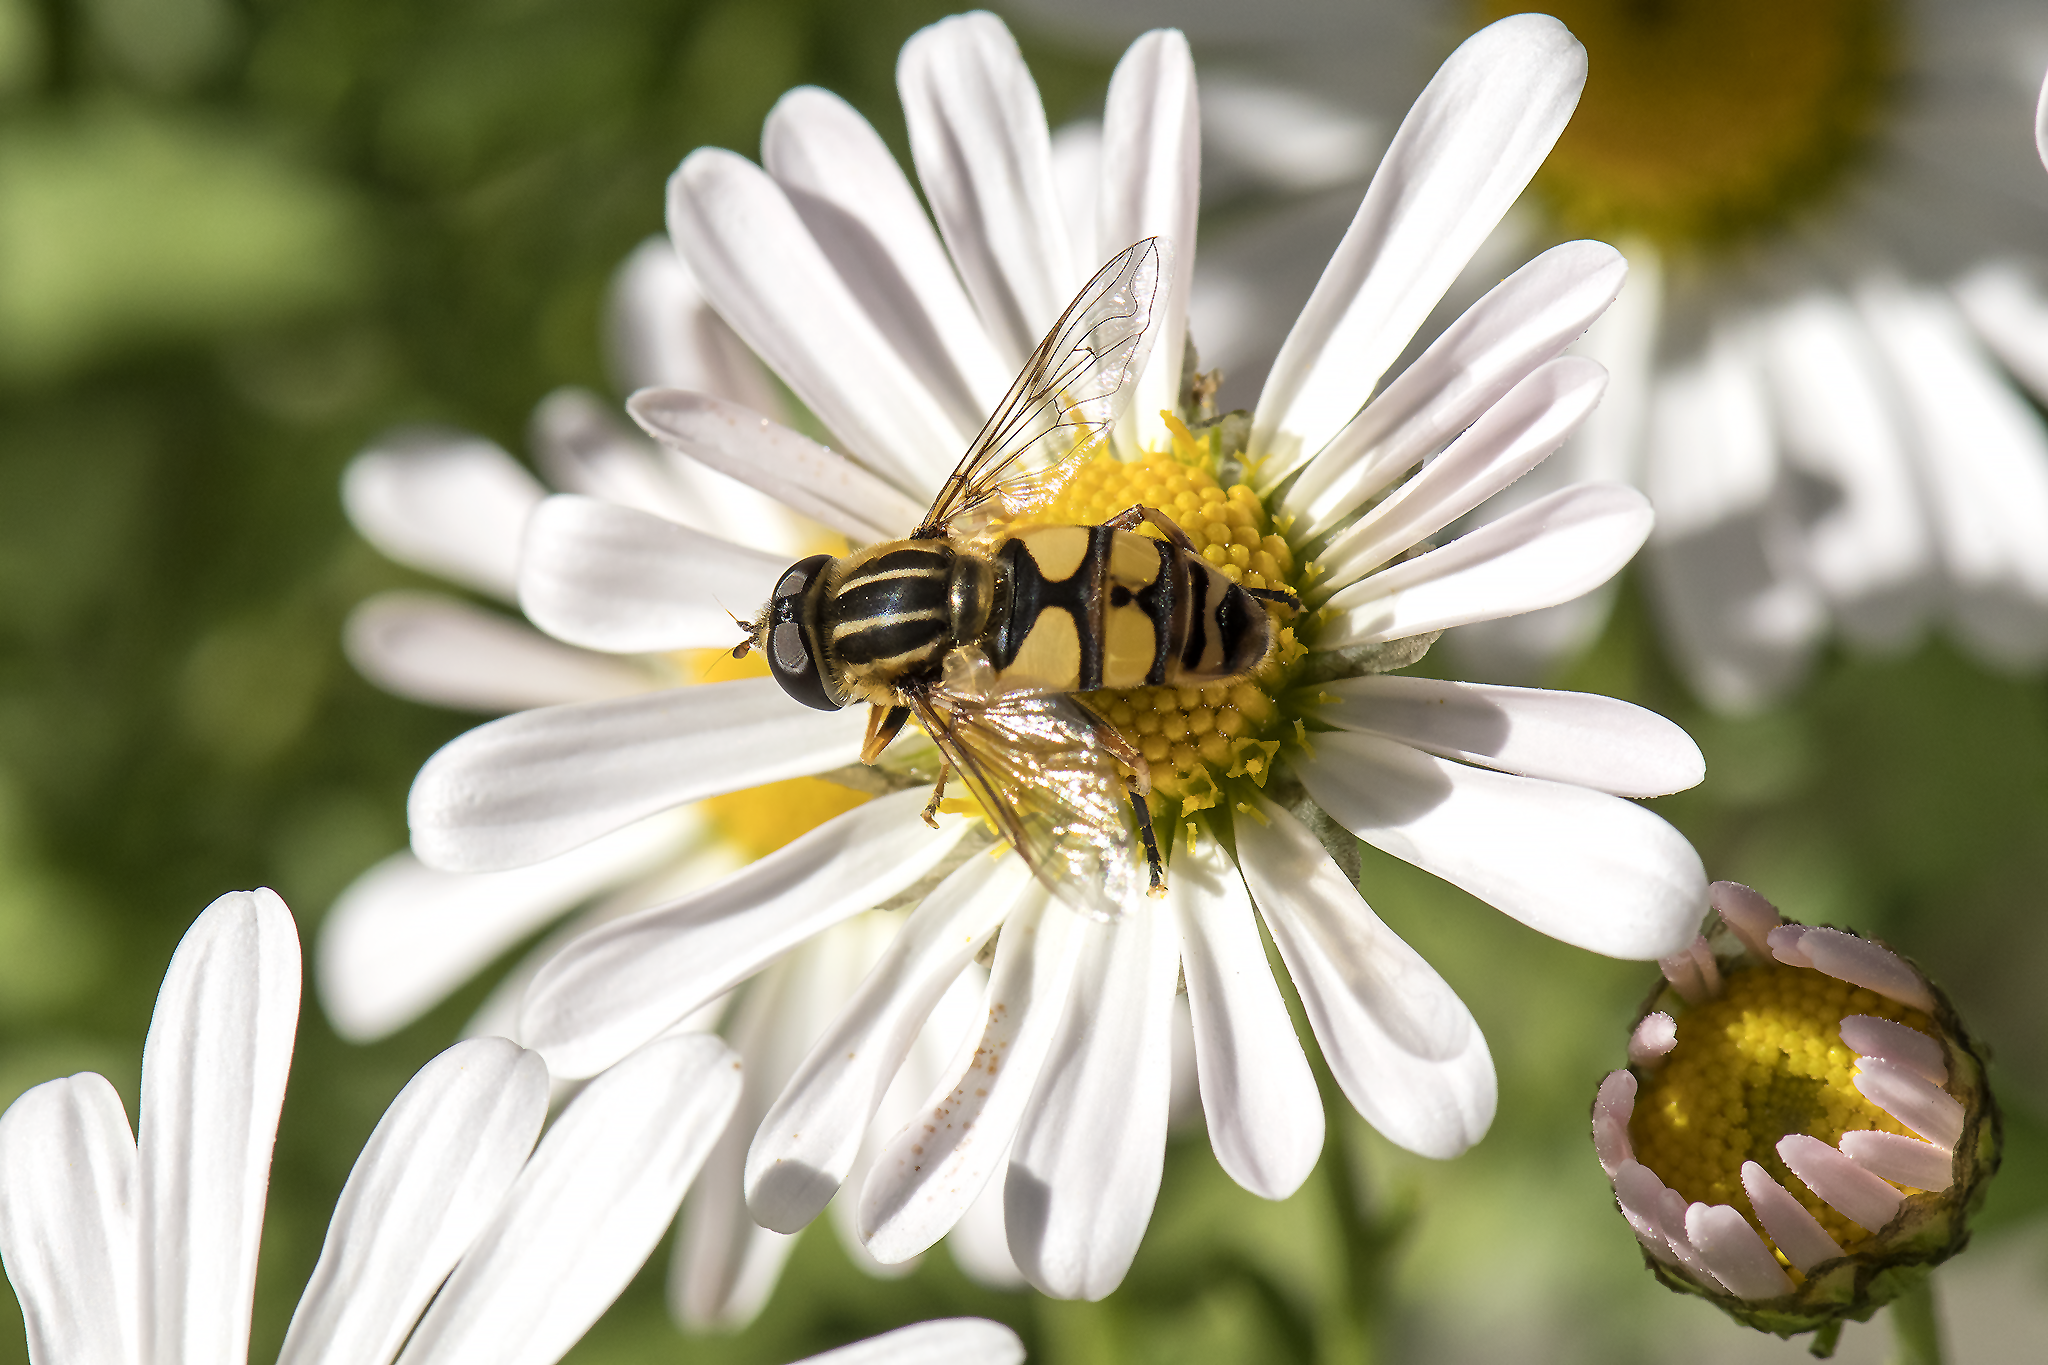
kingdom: Animalia
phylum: Arthropoda
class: Insecta
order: Diptera
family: Syrphidae
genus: Helophilus
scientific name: Helophilus fasciatus
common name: Narrow-headed marsh fly
